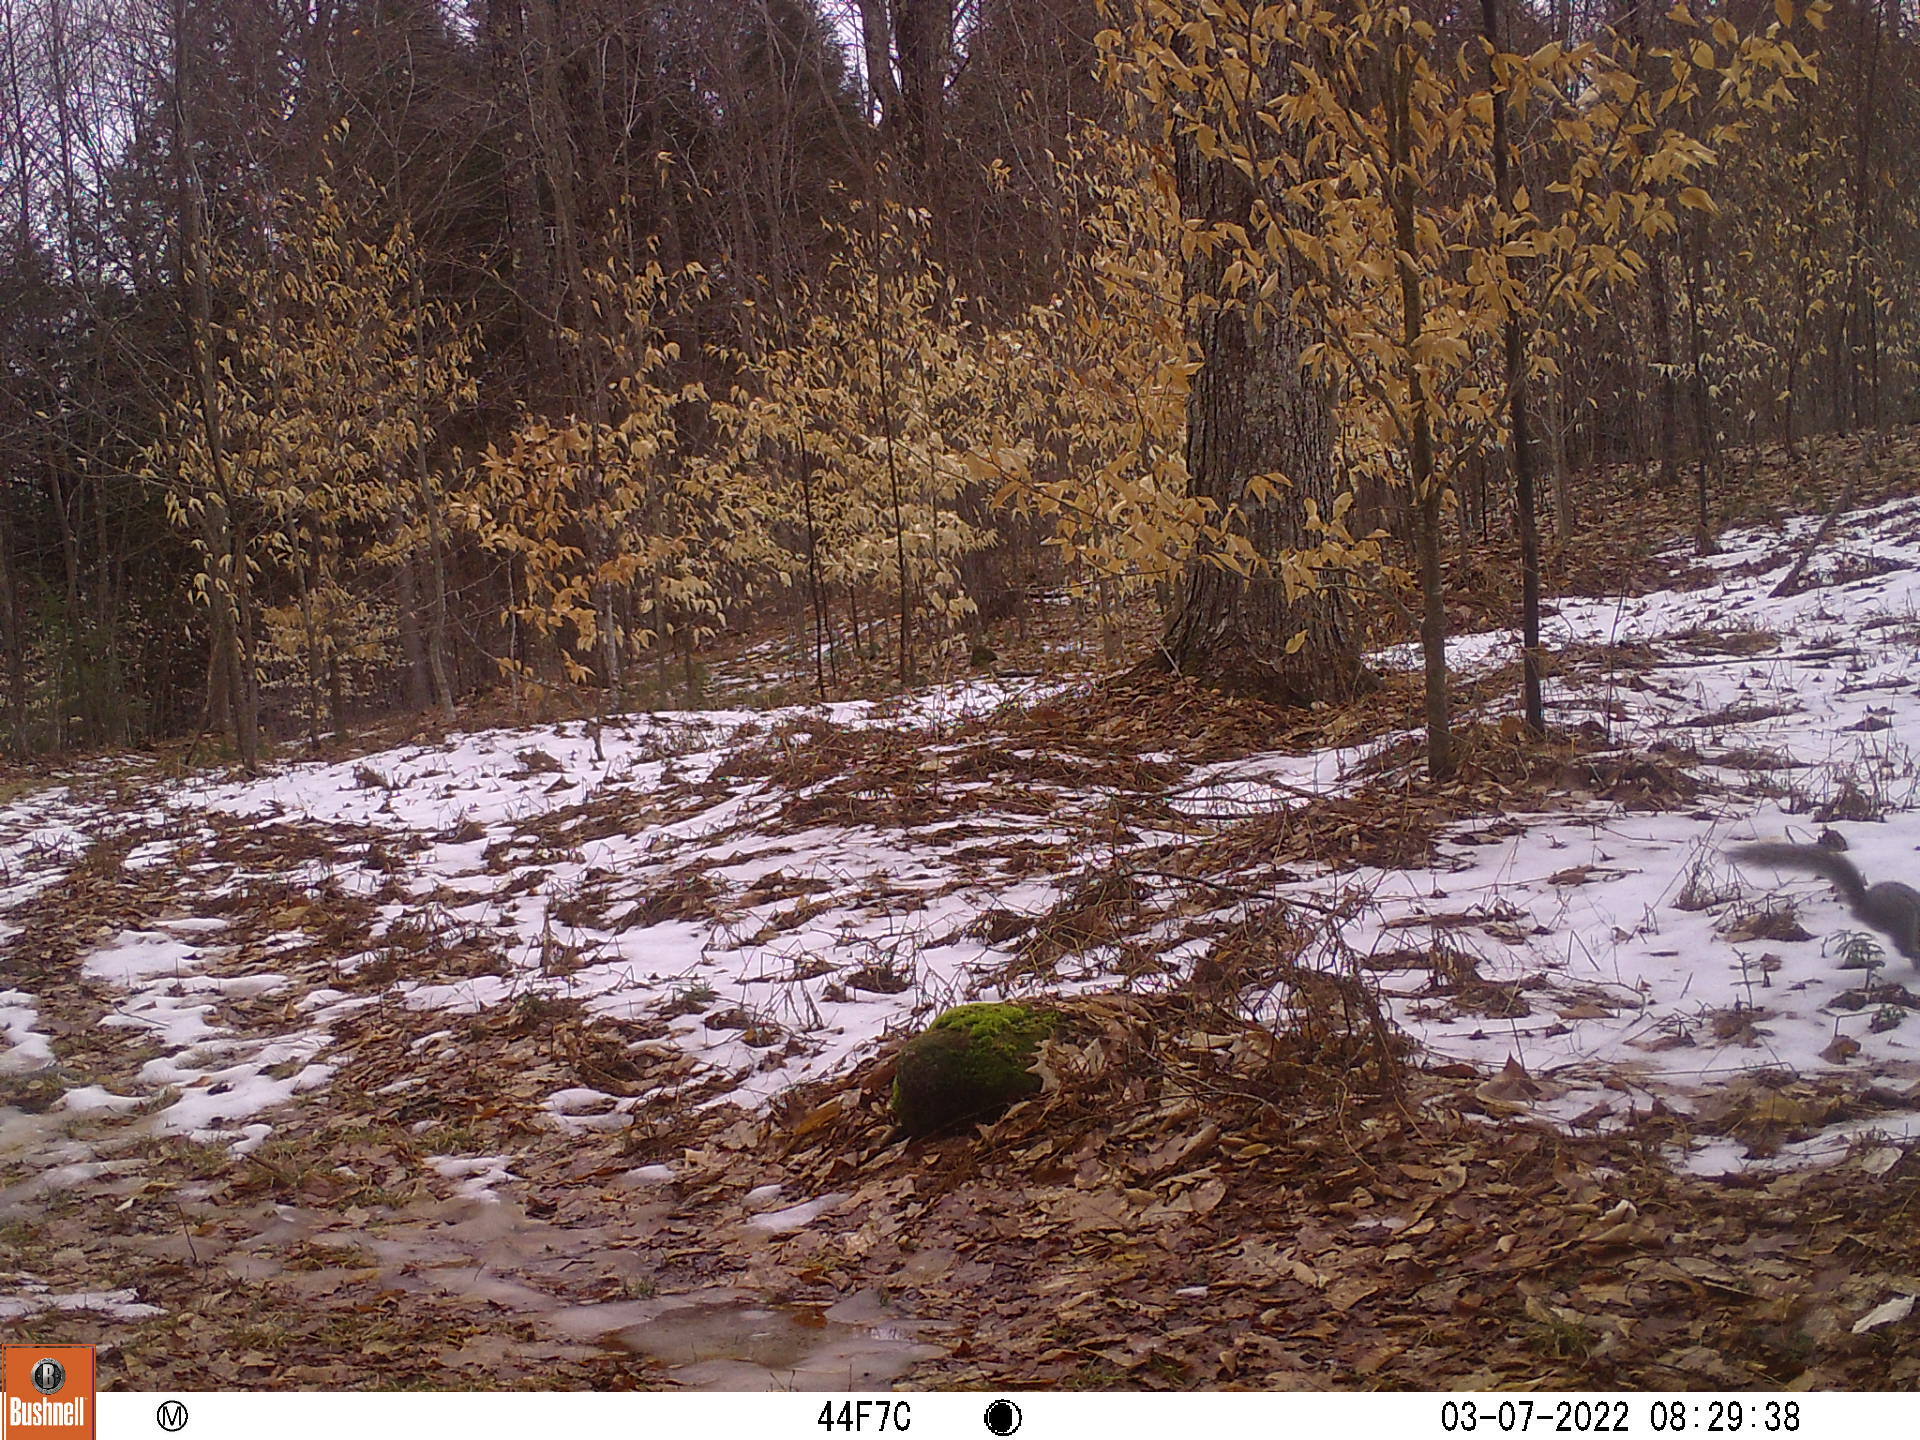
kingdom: Animalia
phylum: Chordata
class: Mammalia
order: Rodentia
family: Sciuridae
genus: Sciurus
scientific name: Sciurus carolinensis
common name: Eastern gray squirrel
